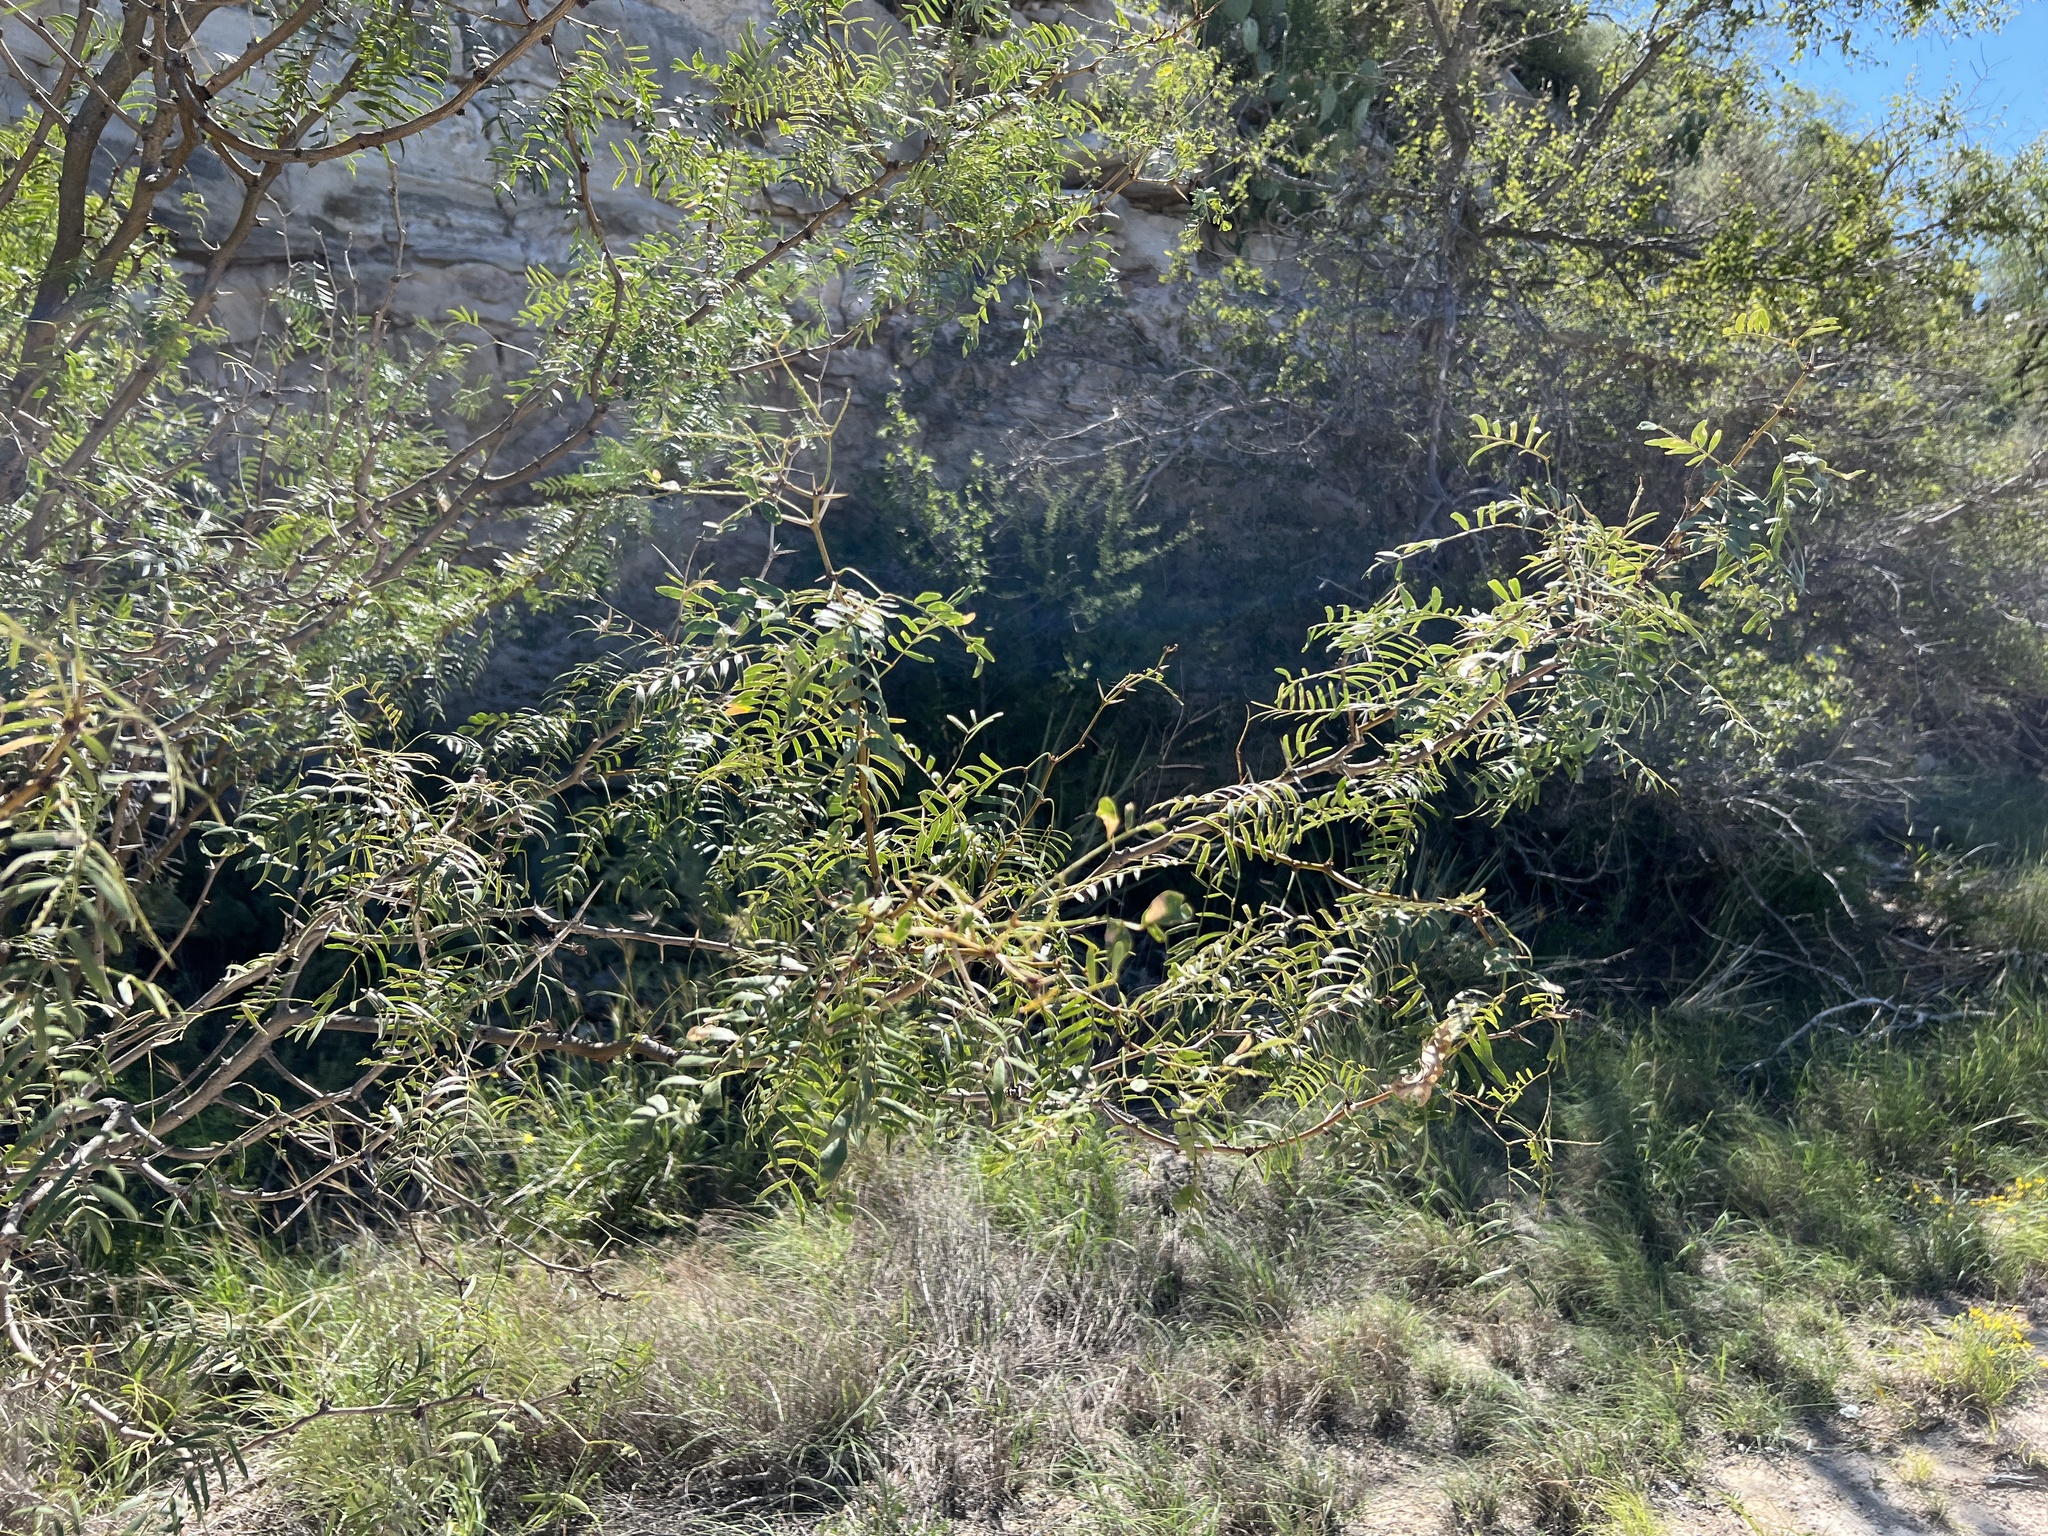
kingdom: Plantae
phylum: Tracheophyta
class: Magnoliopsida
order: Fabales
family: Fabaceae
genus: Prosopis
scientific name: Prosopis glandulosa
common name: Honey mesquite
